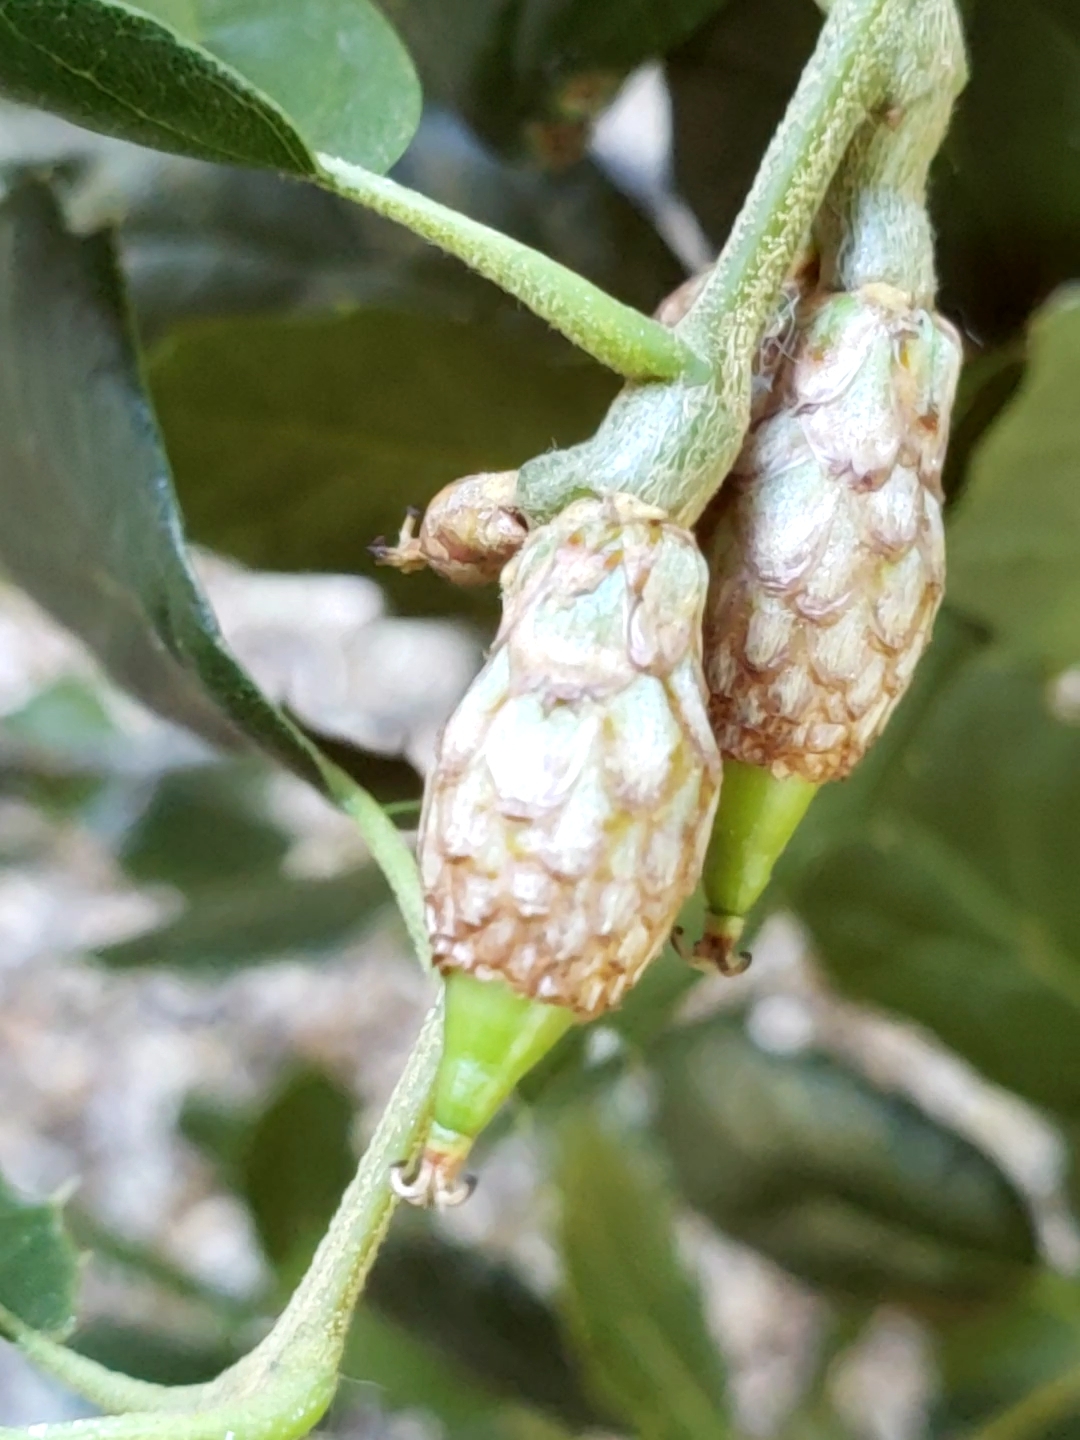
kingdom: Plantae
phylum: Tracheophyta
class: Magnoliopsida
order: Fagales
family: Fagaceae
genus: Quercus
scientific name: Quercus agrifolia
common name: California live oak
